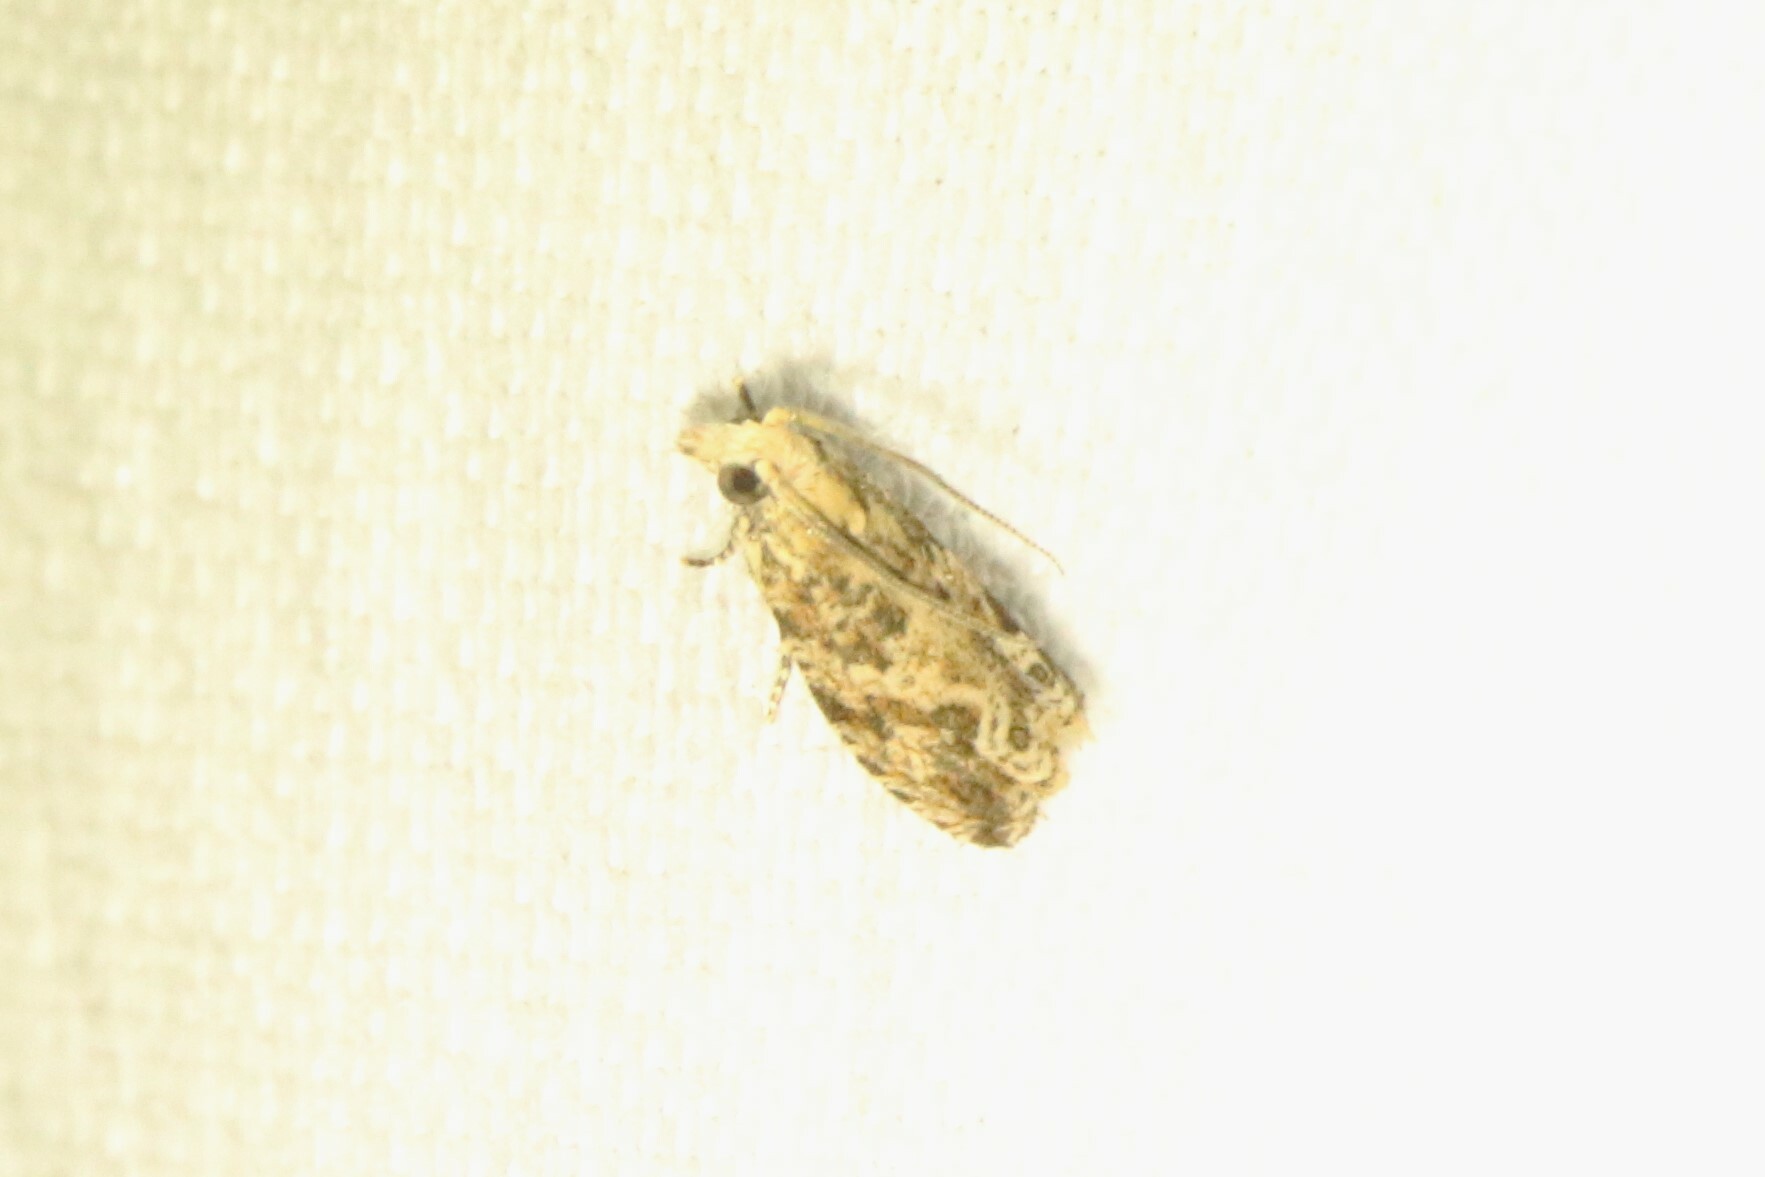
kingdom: Animalia
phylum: Arthropoda
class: Insecta
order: Lepidoptera
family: Tortricidae
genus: Bactra
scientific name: Bactra furfurana
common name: Mottled marble
